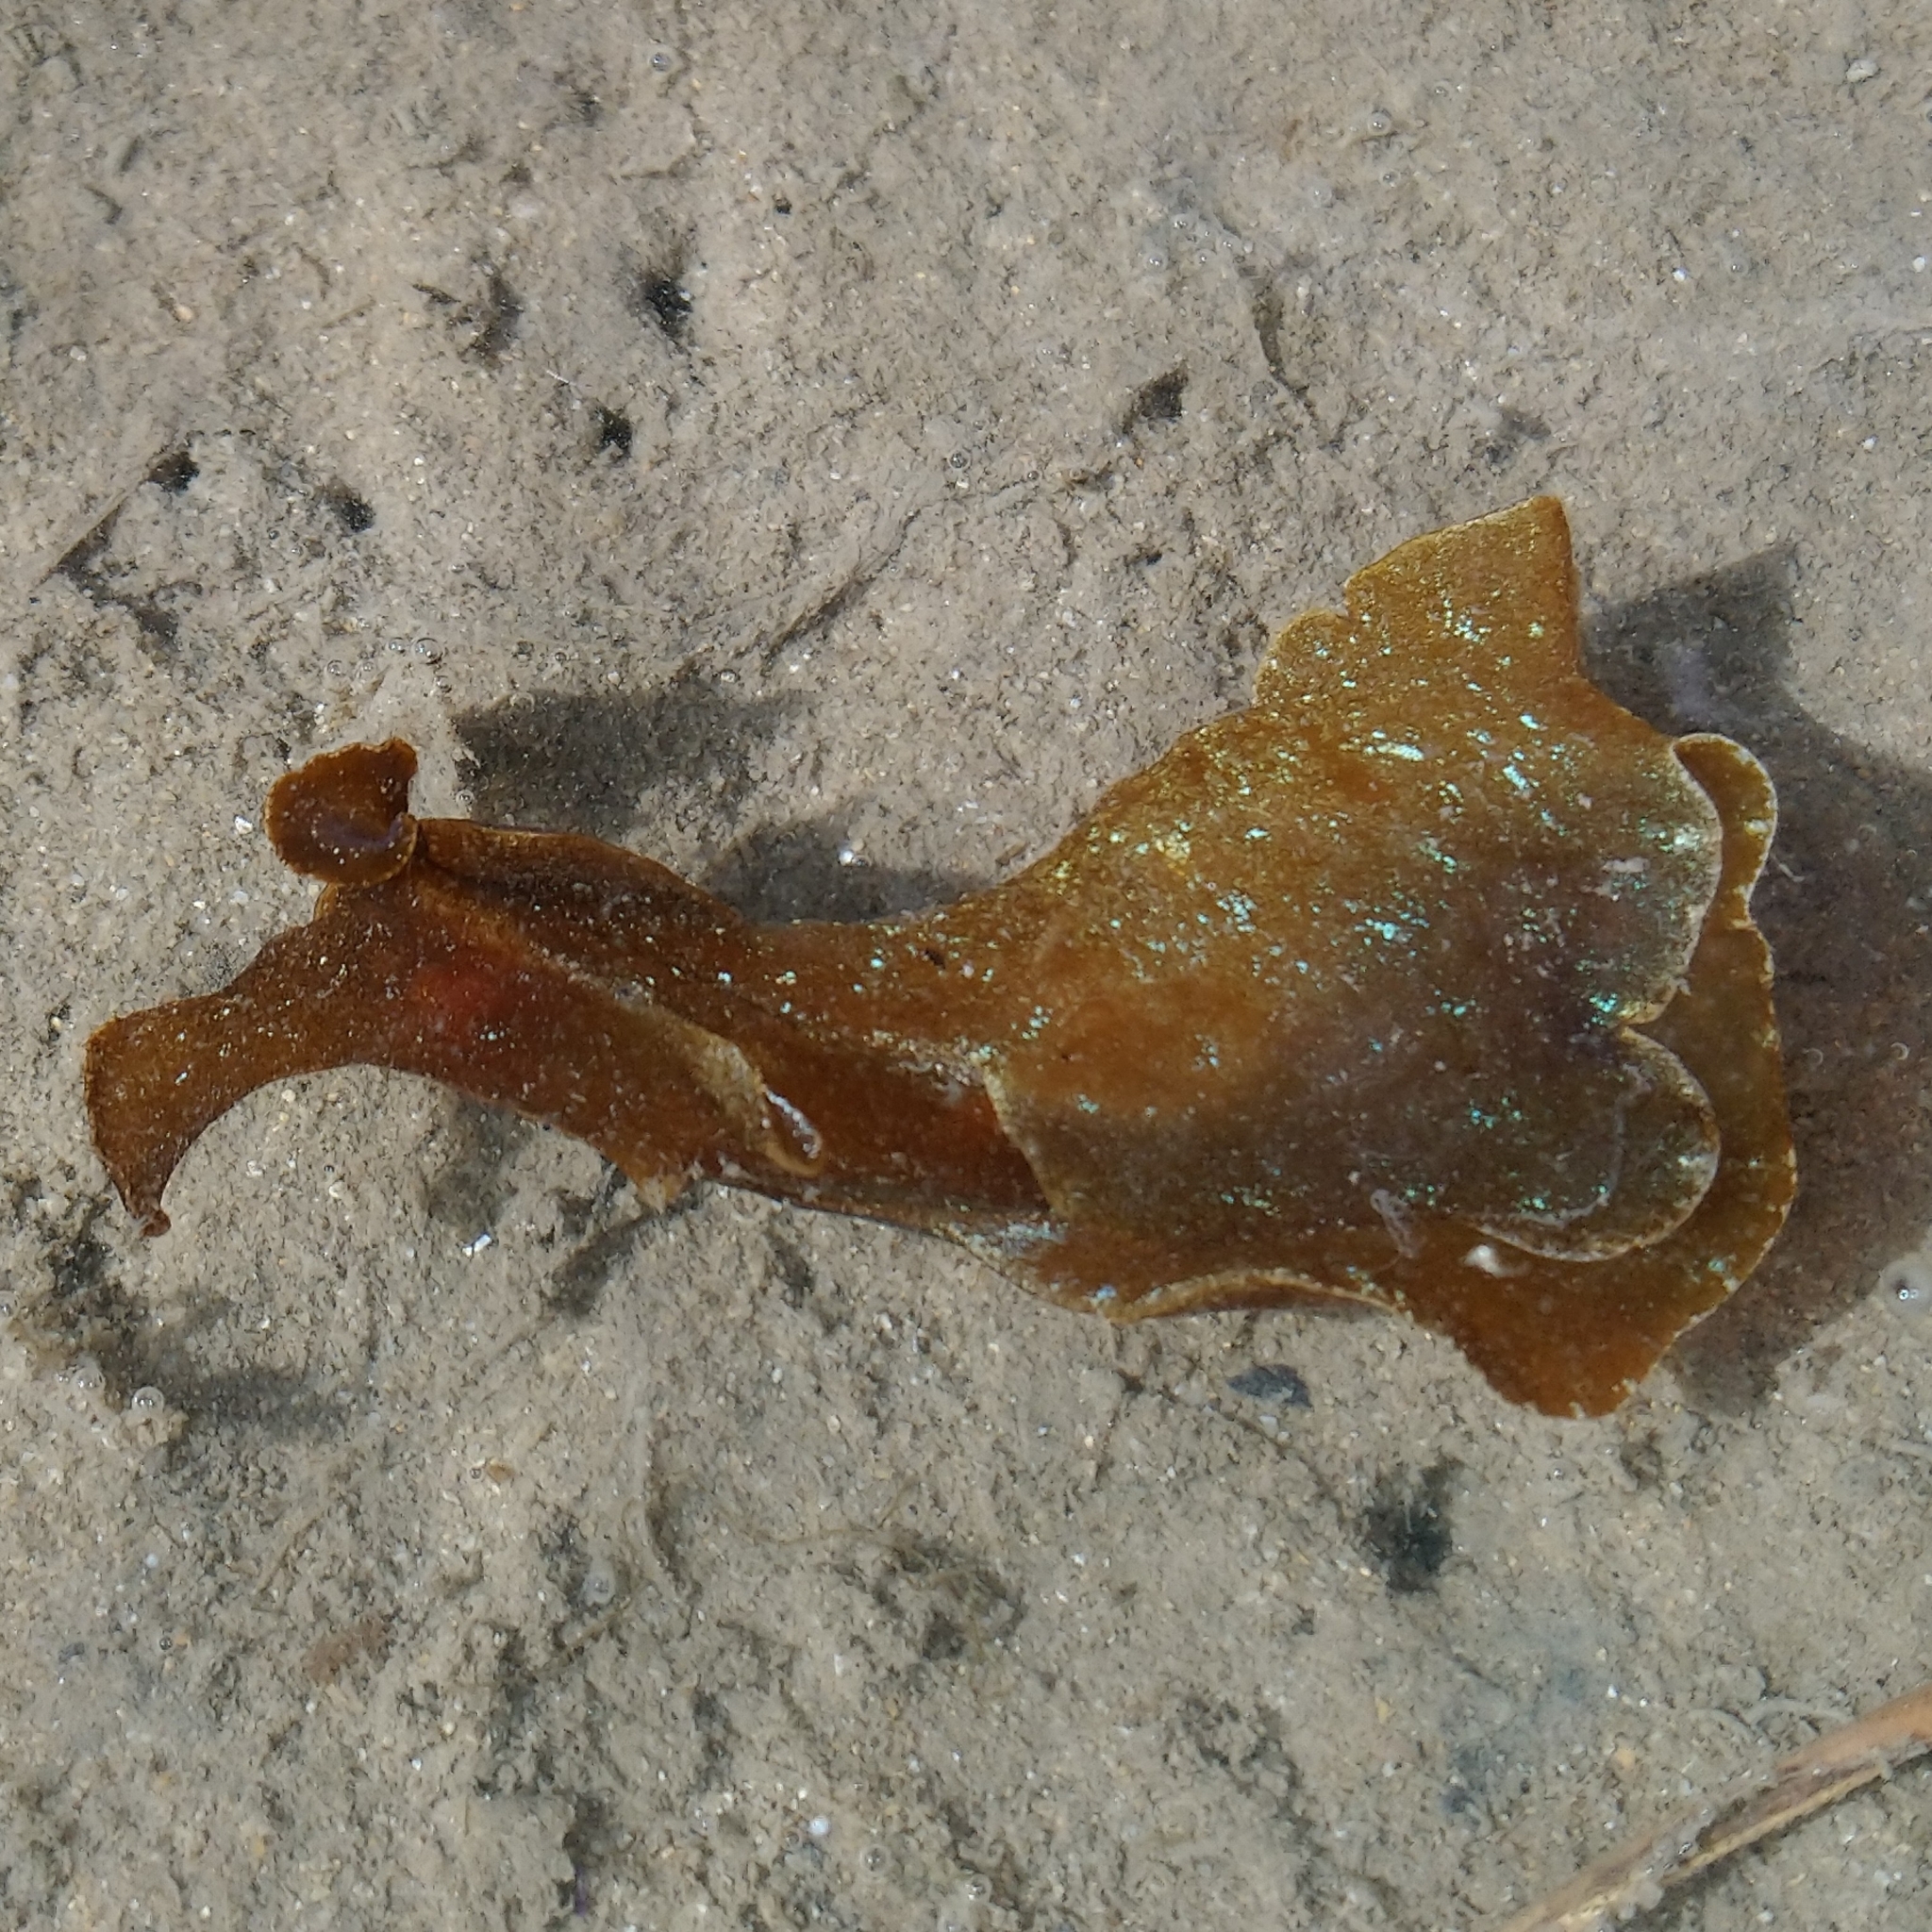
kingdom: Animalia
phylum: Mollusca
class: Gastropoda
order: Aplysiida
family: Aplysiidae
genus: Aplysia
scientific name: Aplysia juliana
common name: Walking sea hare
